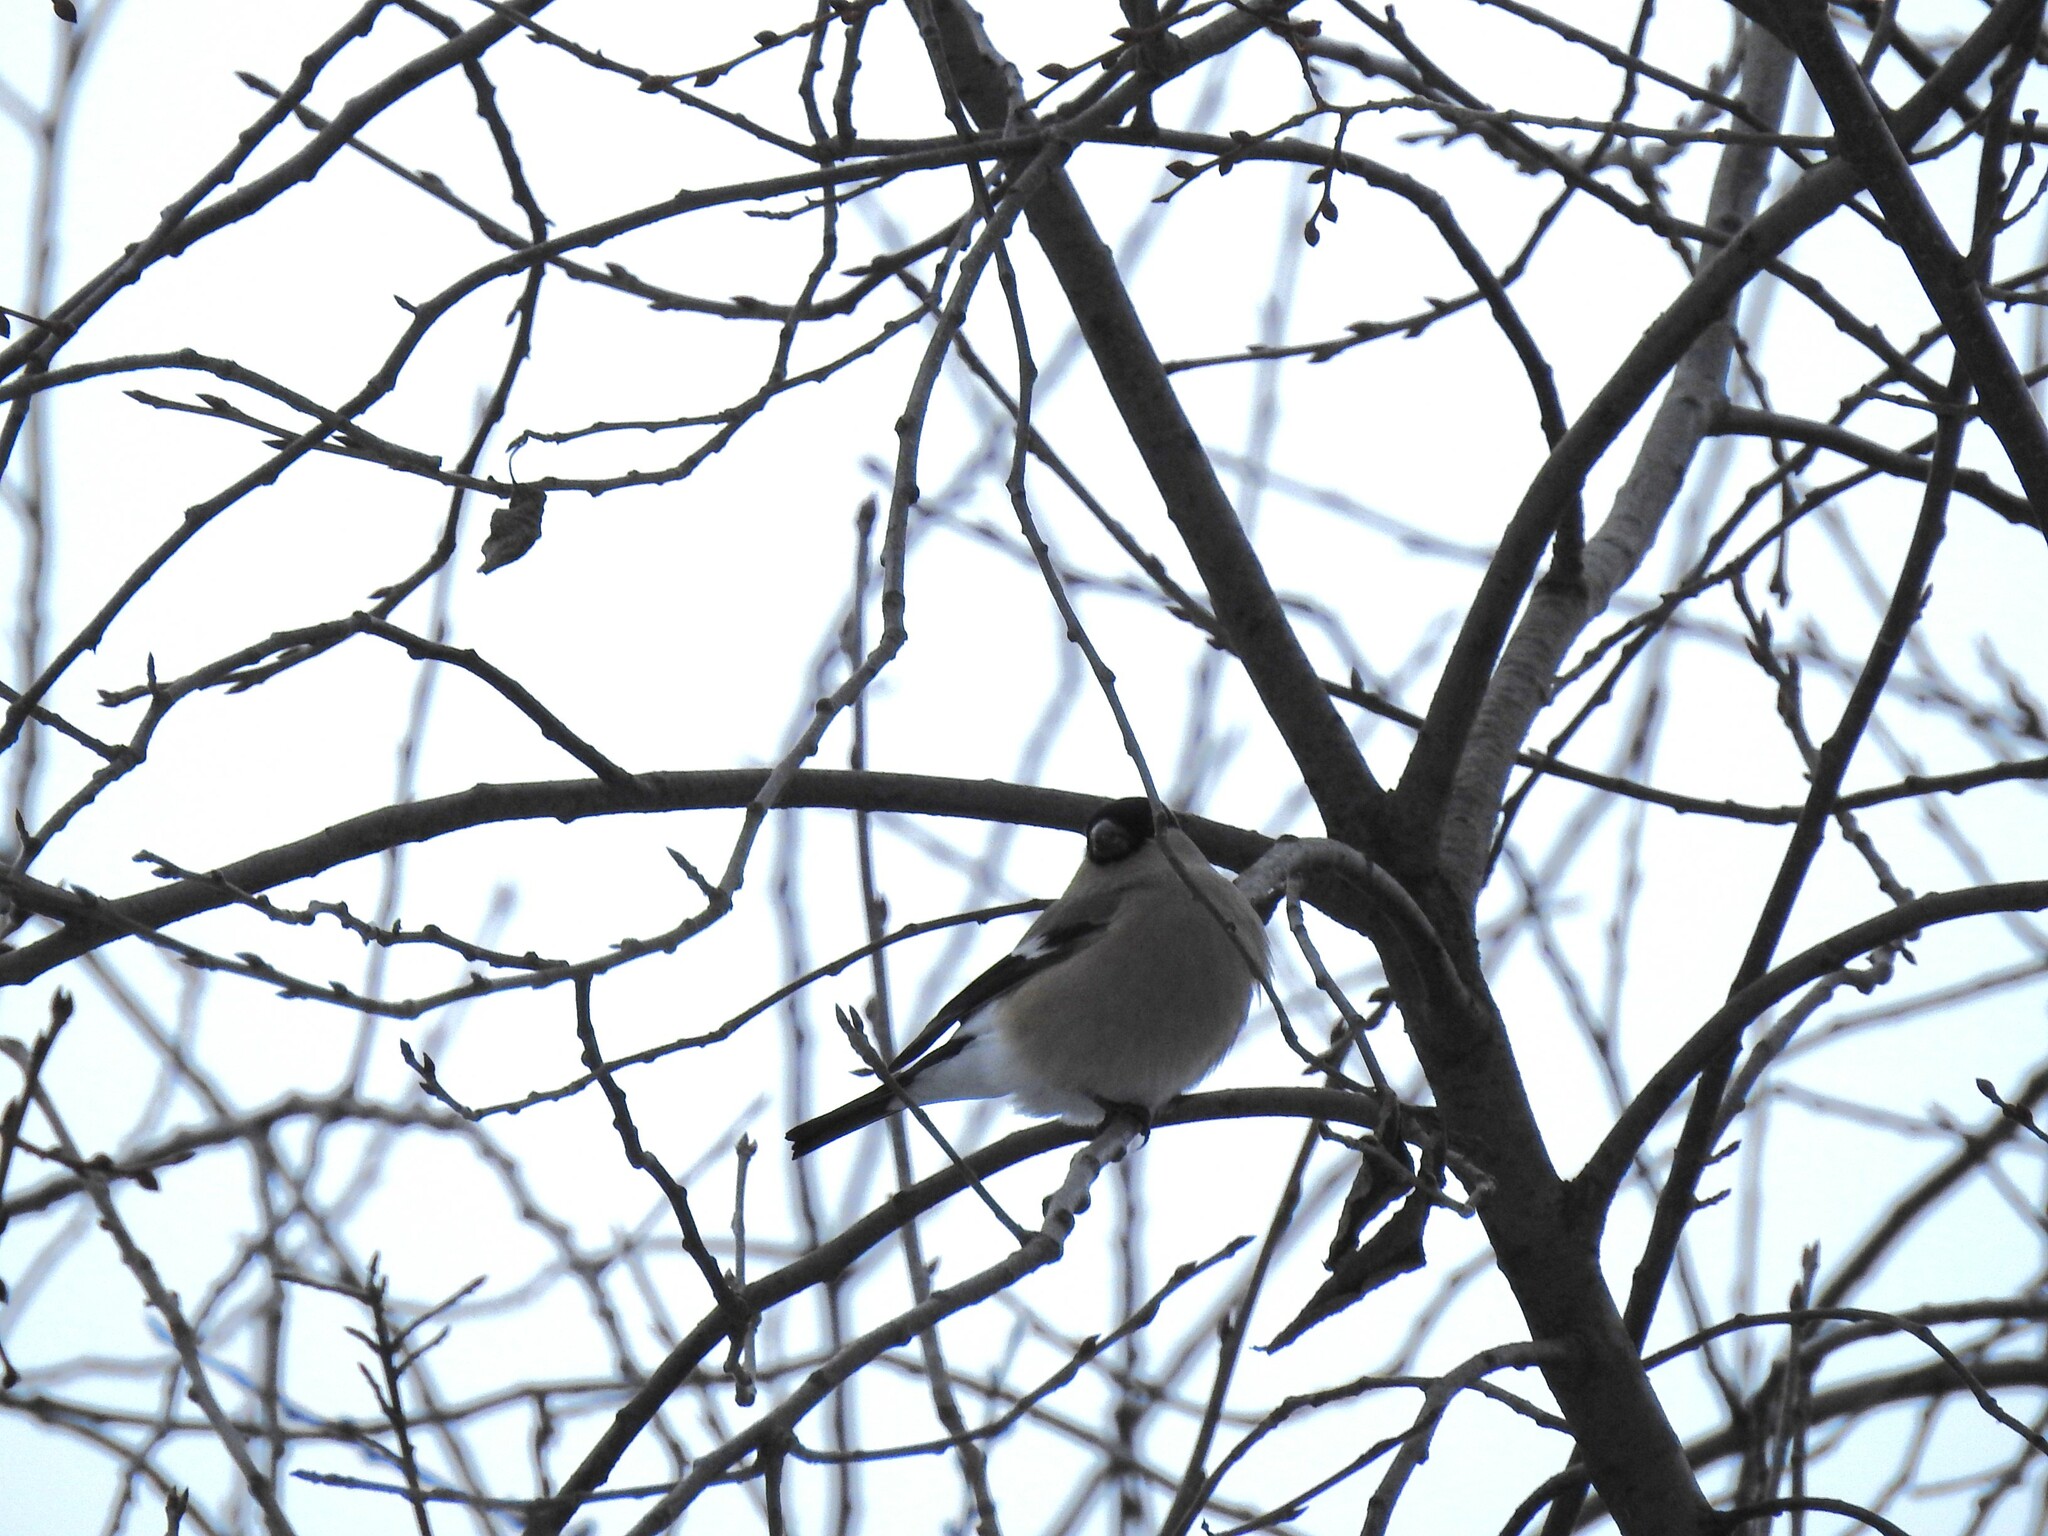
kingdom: Animalia
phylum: Chordata
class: Aves
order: Passeriformes
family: Fringillidae
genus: Pyrrhula
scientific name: Pyrrhula pyrrhula
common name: Eurasian bullfinch
